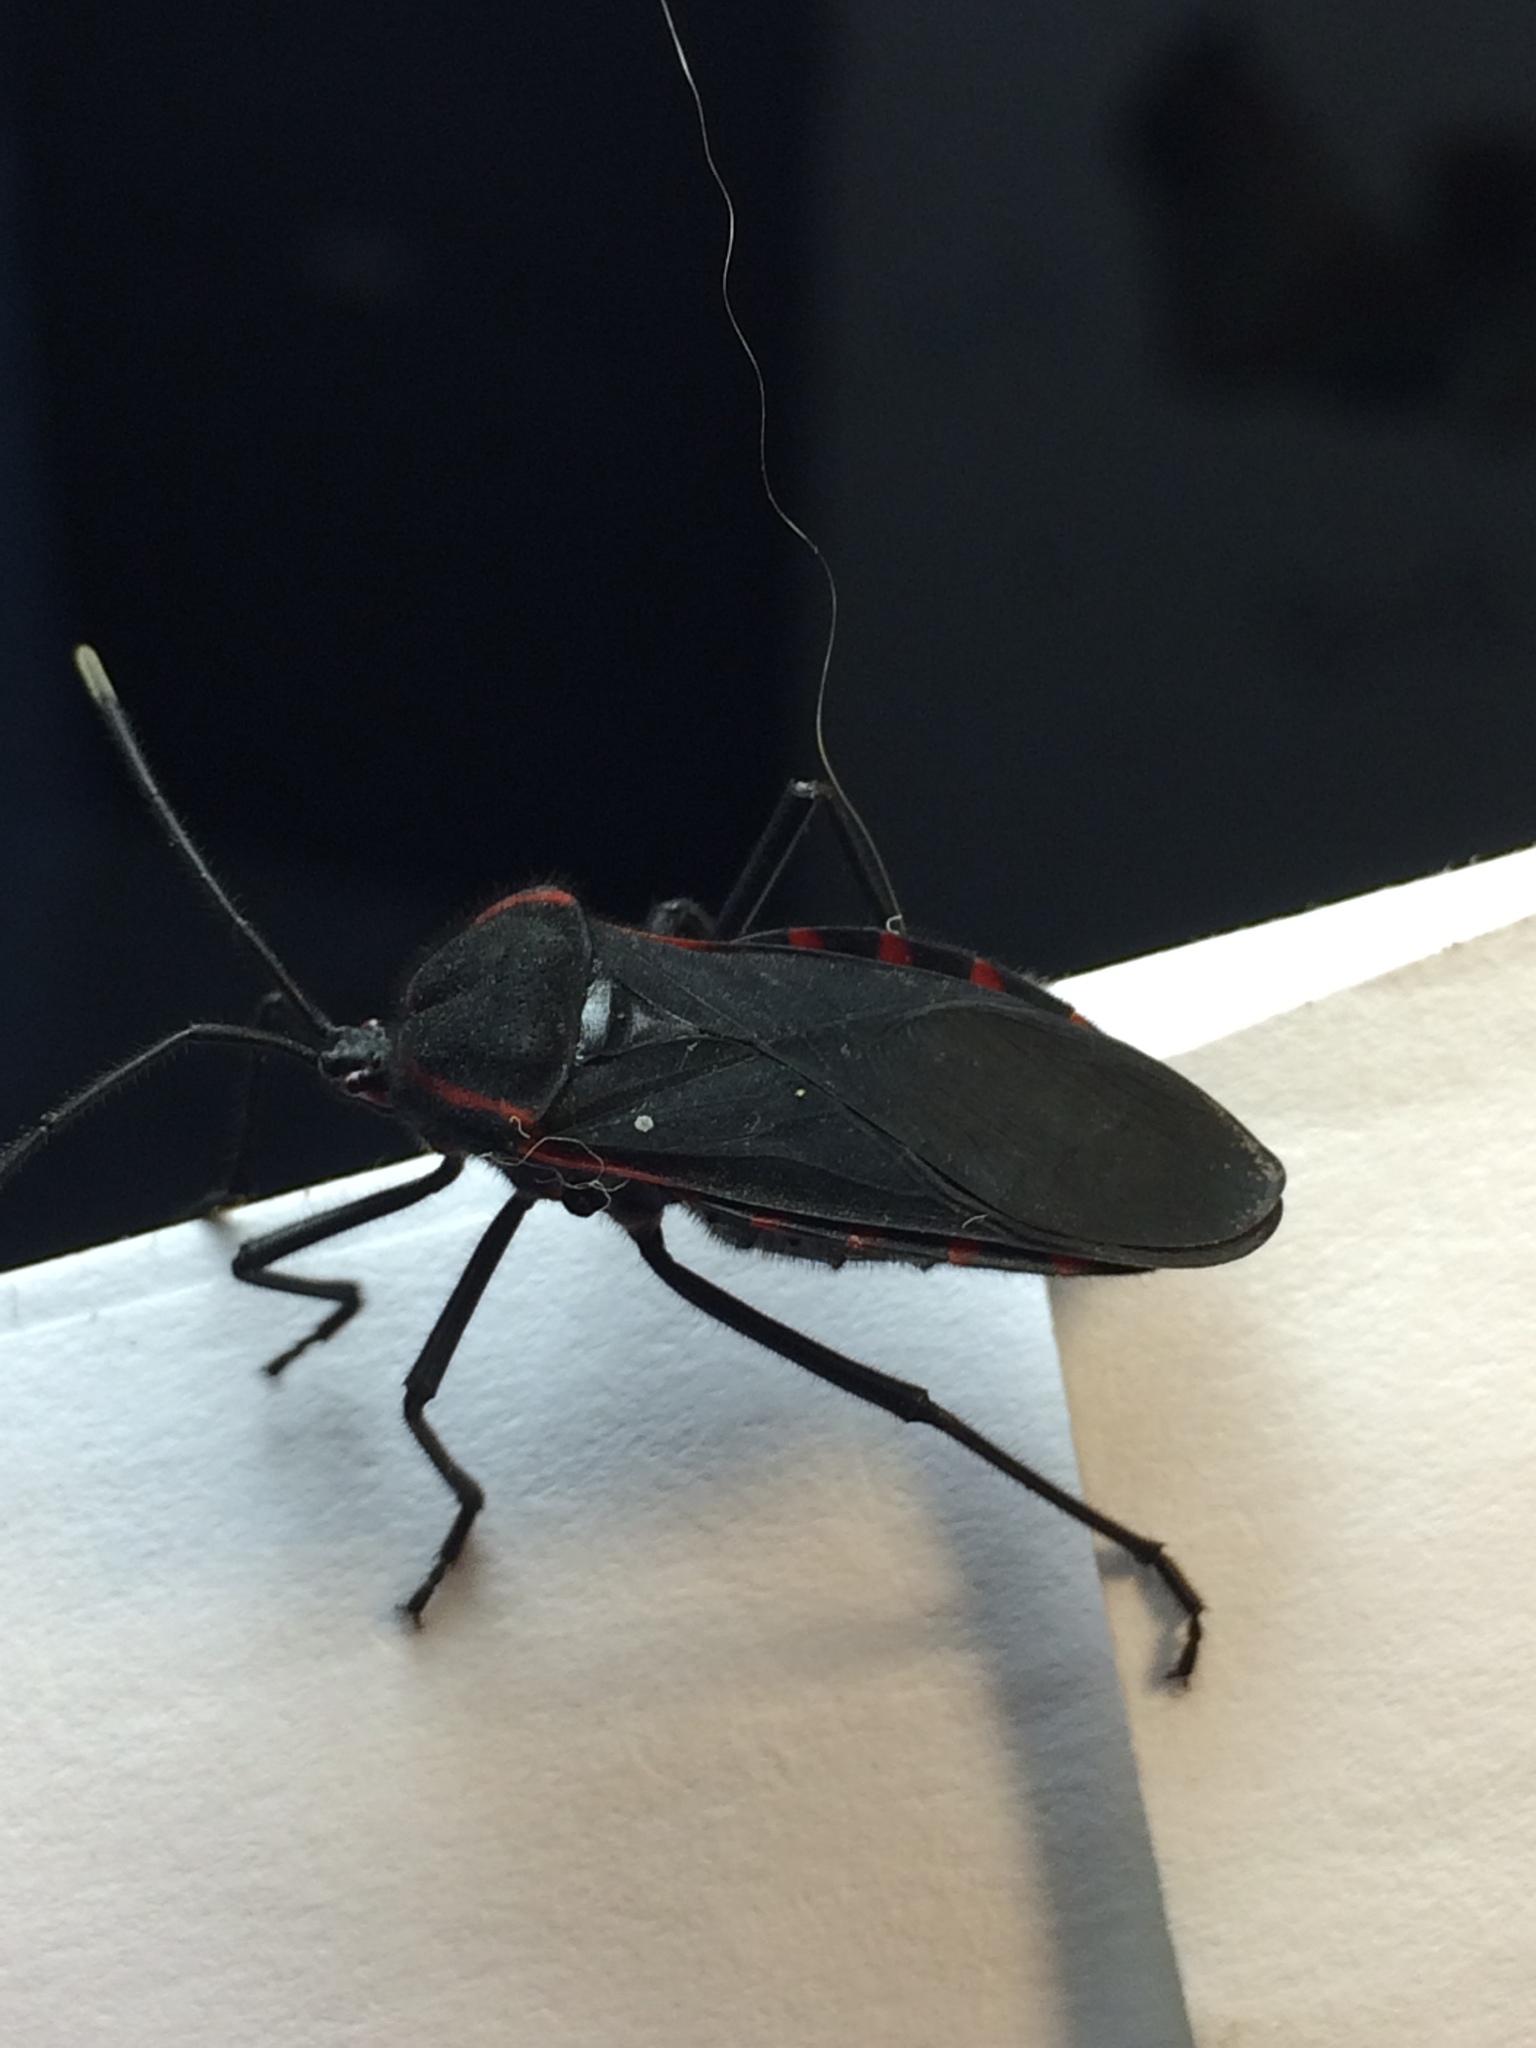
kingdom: Animalia
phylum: Arthropoda
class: Insecta
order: Hemiptera
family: Coreidae
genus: Sephina
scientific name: Sephina esquivalae
